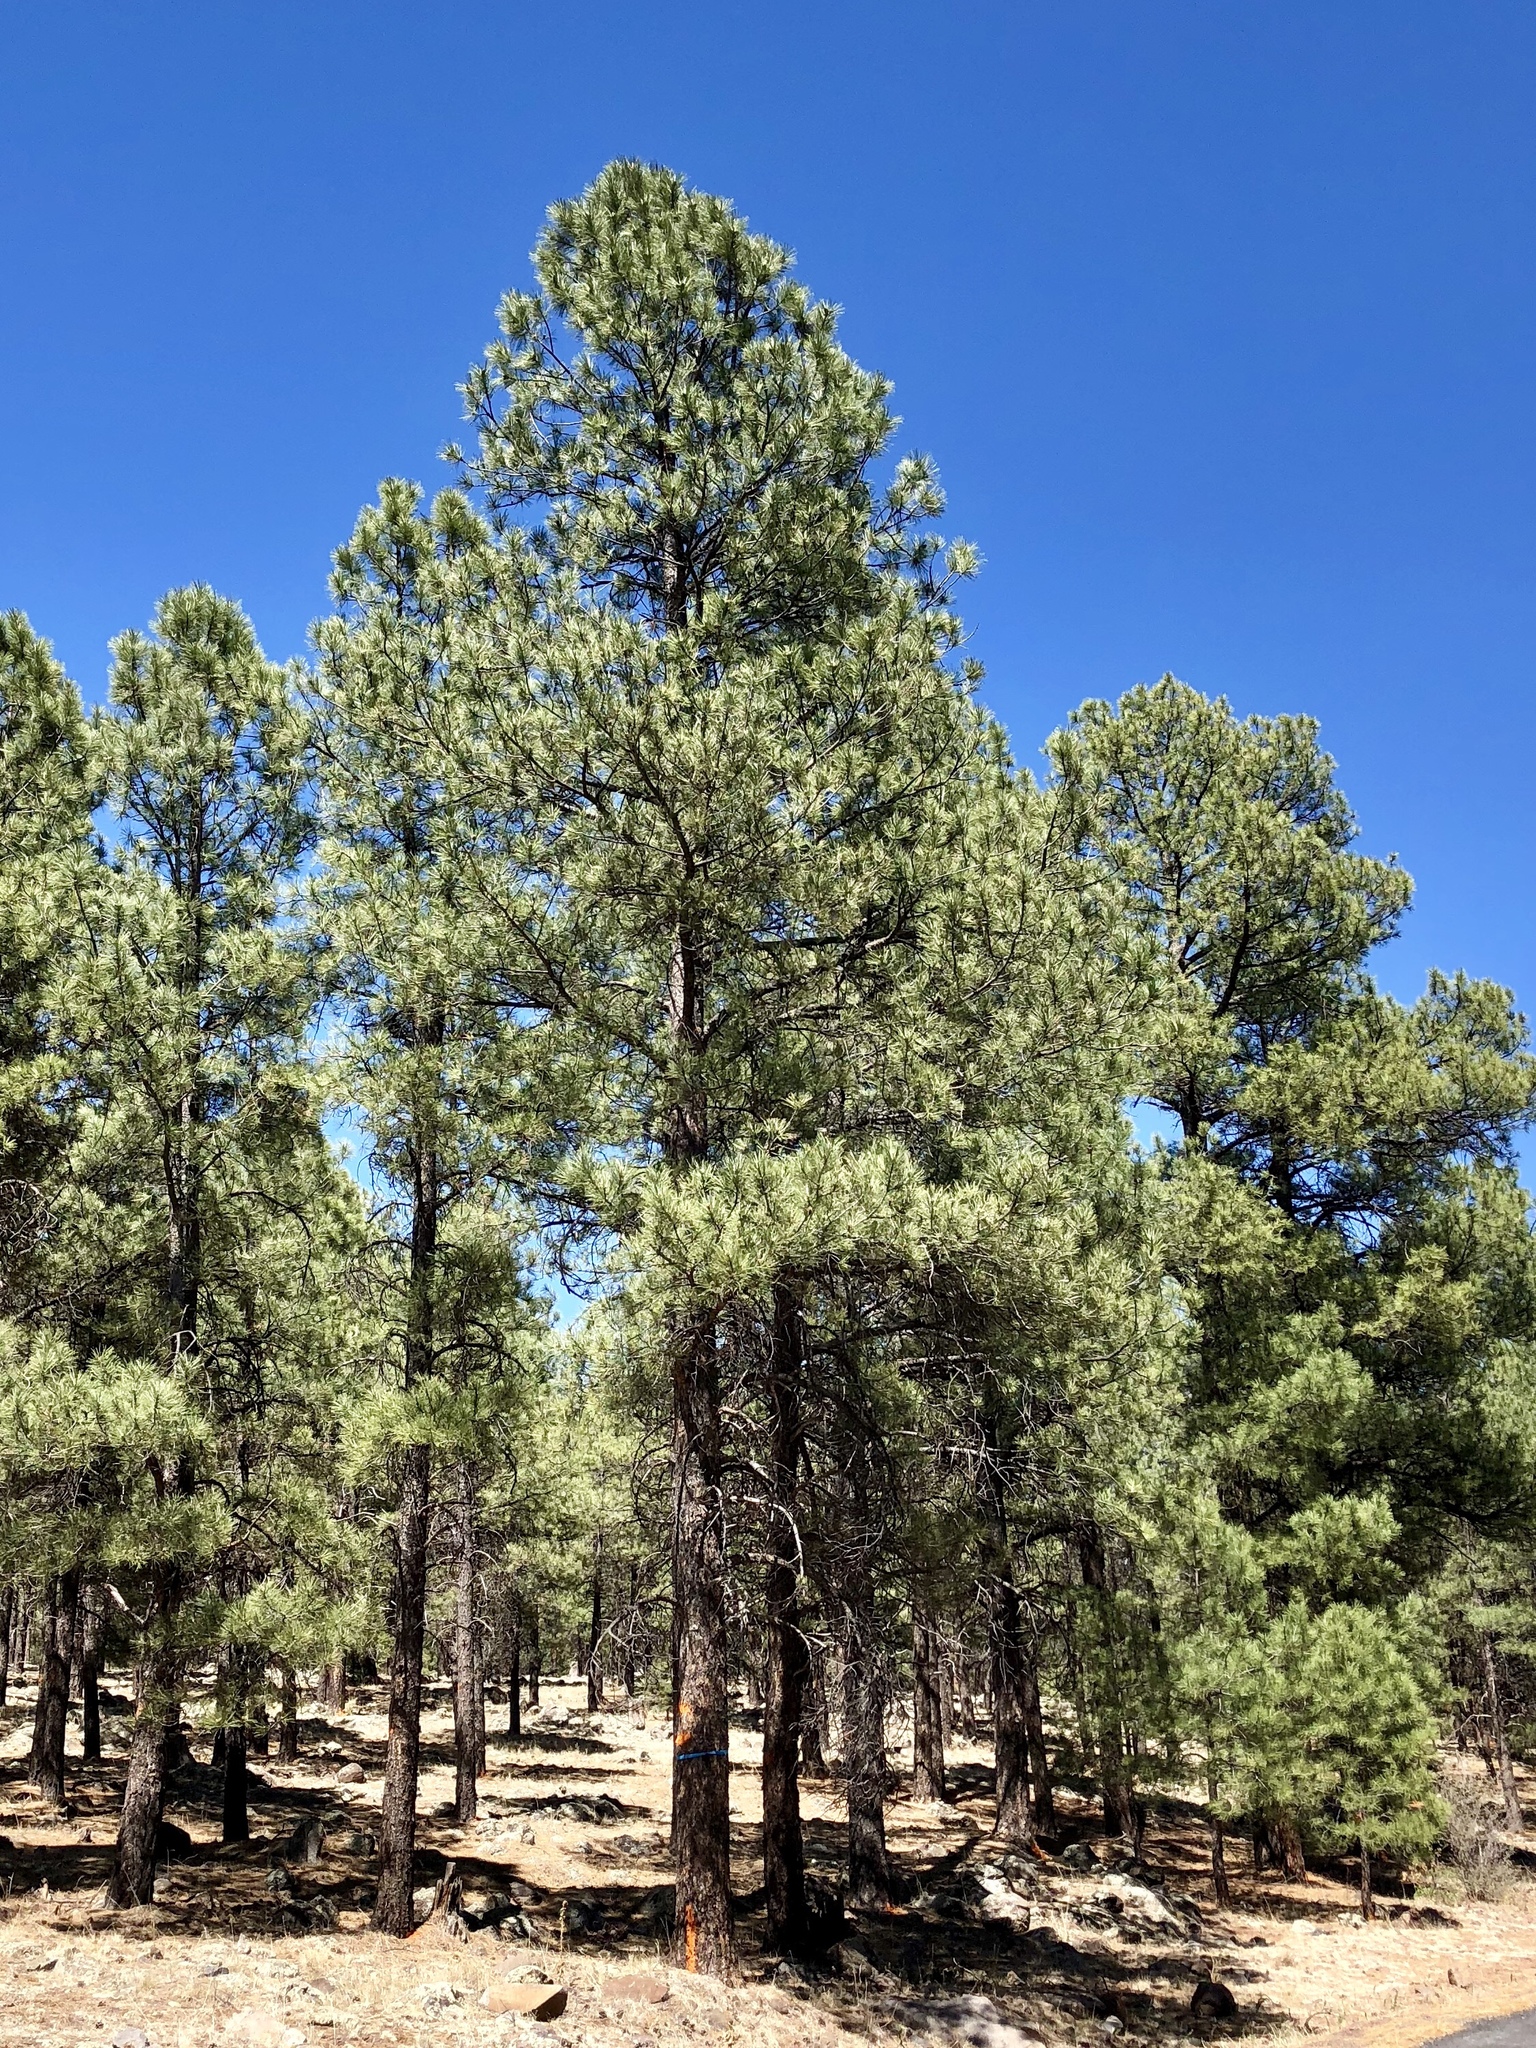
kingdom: Plantae
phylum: Tracheophyta
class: Pinopsida
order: Pinales
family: Pinaceae
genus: Pinus
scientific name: Pinus ponderosa
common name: Western yellow-pine
